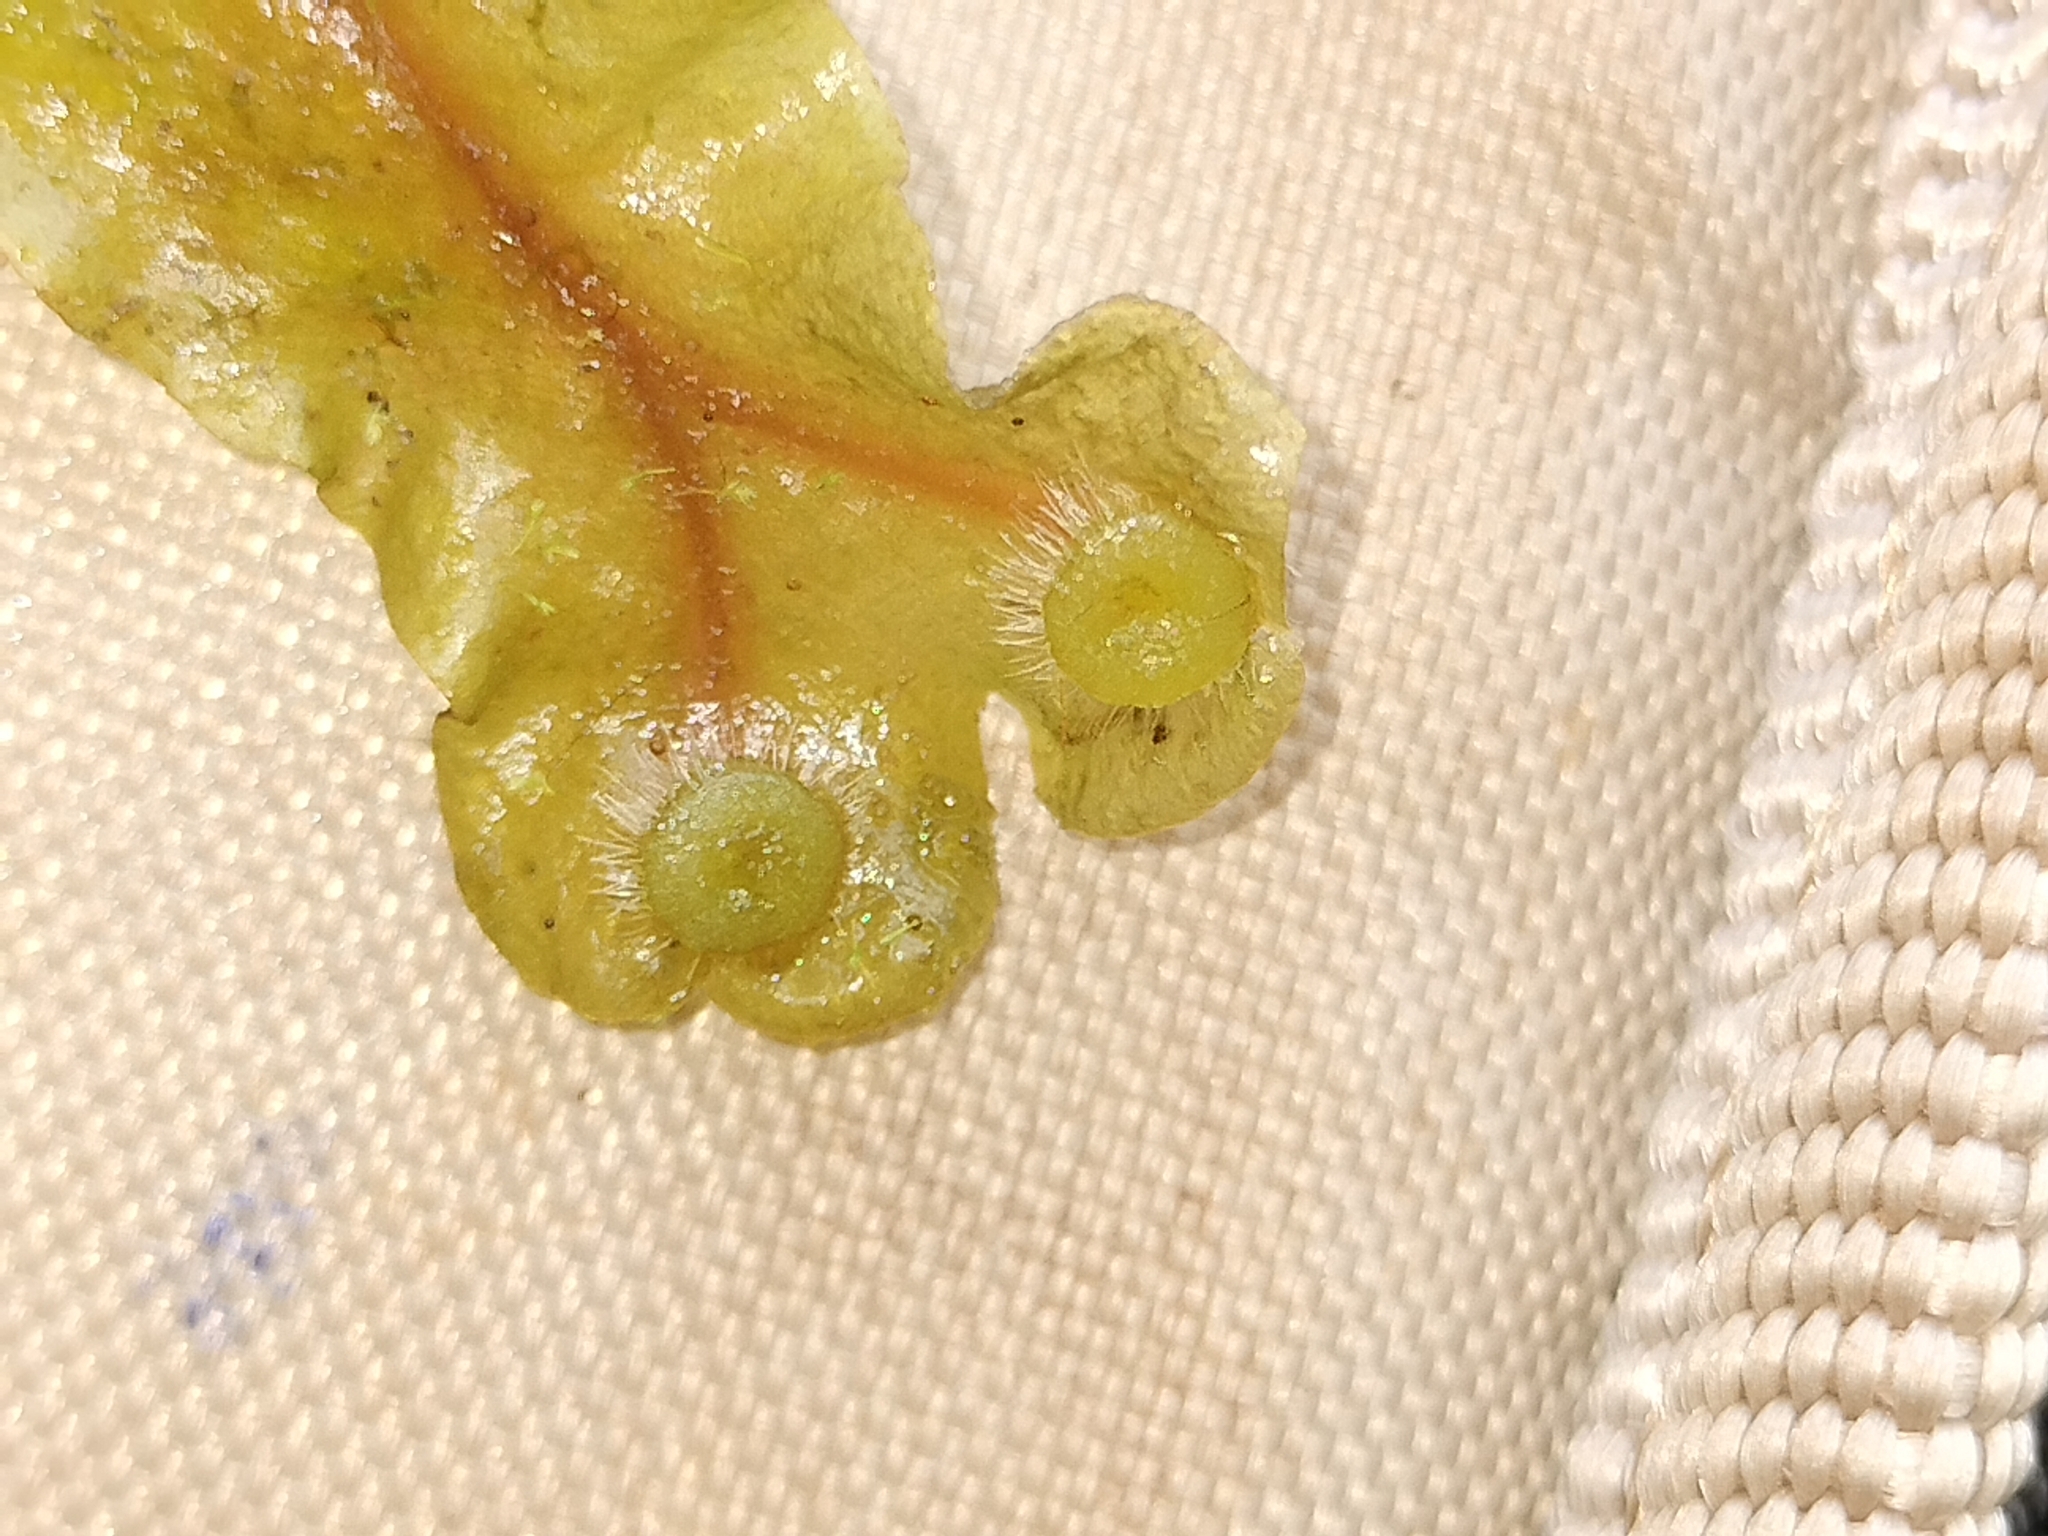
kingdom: Plantae
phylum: Marchantiophyta
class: Marchantiopsida
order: Marchantiales
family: Dumortieraceae
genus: Dumortiera
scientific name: Dumortiera hirsuta
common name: Dumortier's liverwort
